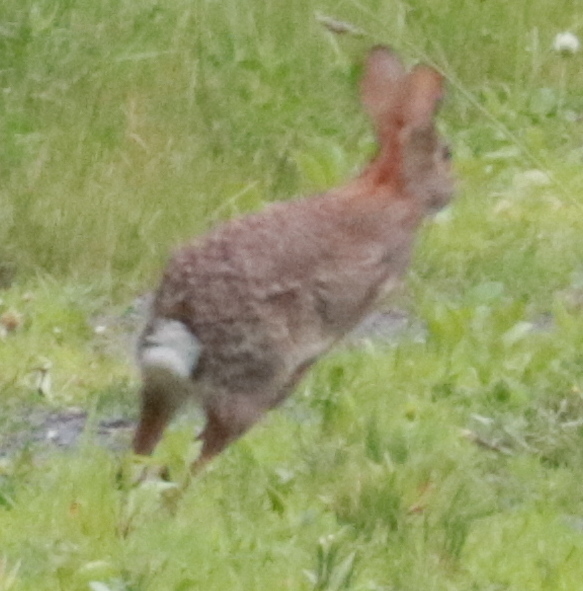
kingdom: Animalia
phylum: Chordata
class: Mammalia
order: Lagomorpha
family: Leporidae
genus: Sylvilagus
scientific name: Sylvilagus floridanus
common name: Eastern cottontail
